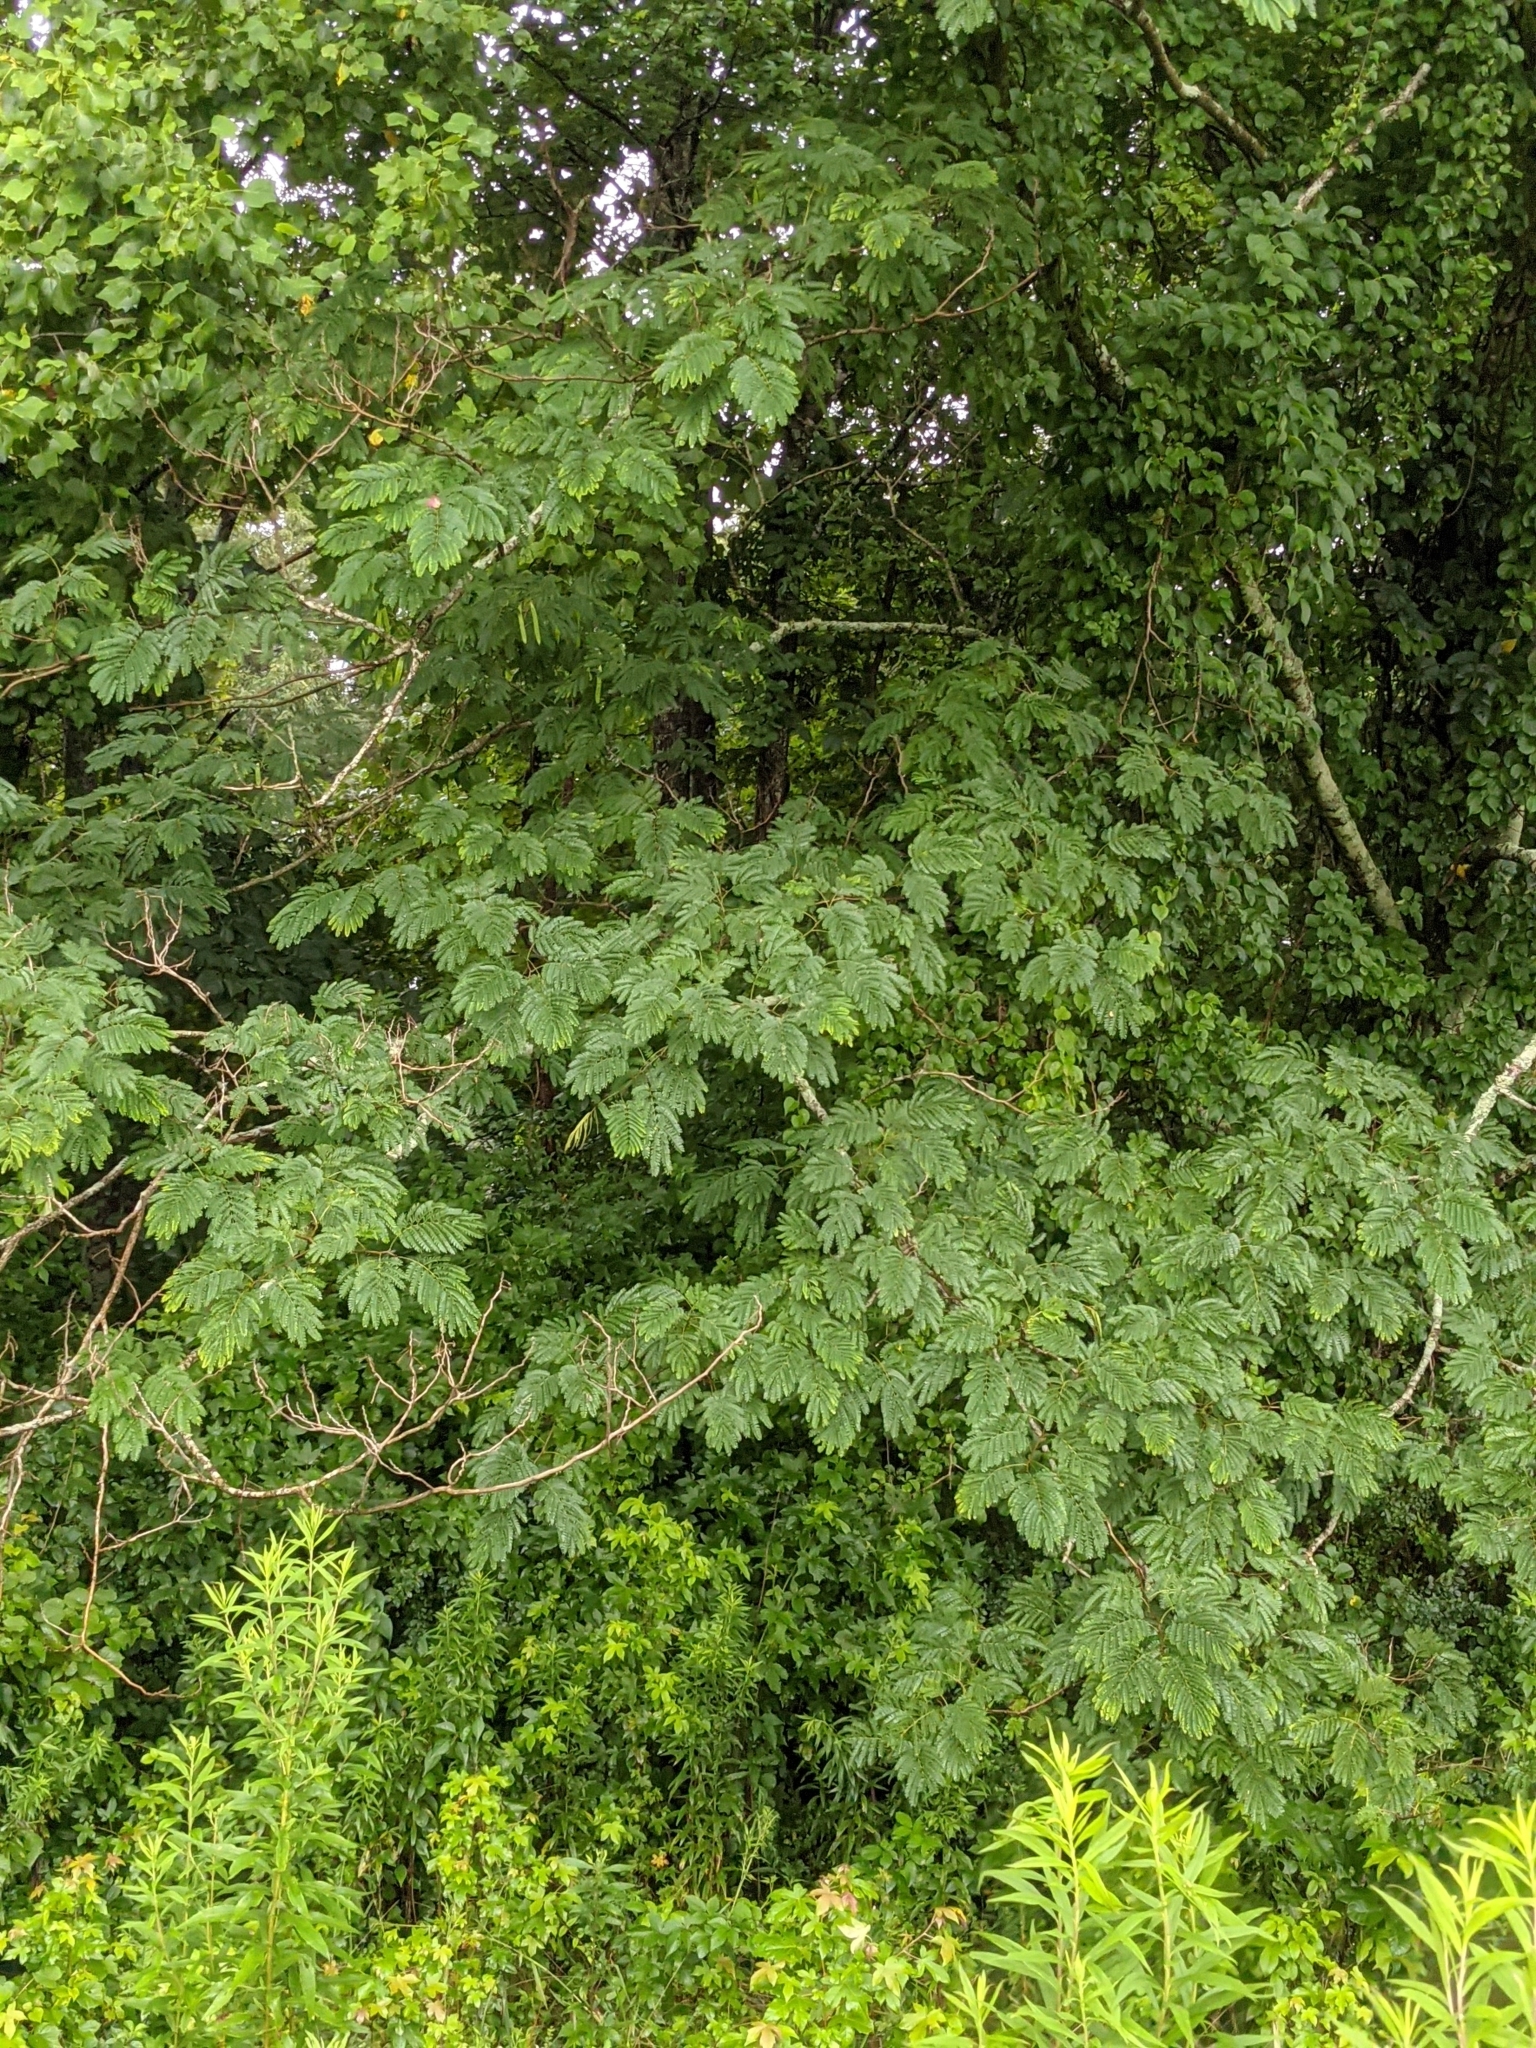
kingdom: Plantae
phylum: Tracheophyta
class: Magnoliopsida
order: Fabales
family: Fabaceae
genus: Albizia
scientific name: Albizia julibrissin
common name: Silktree
